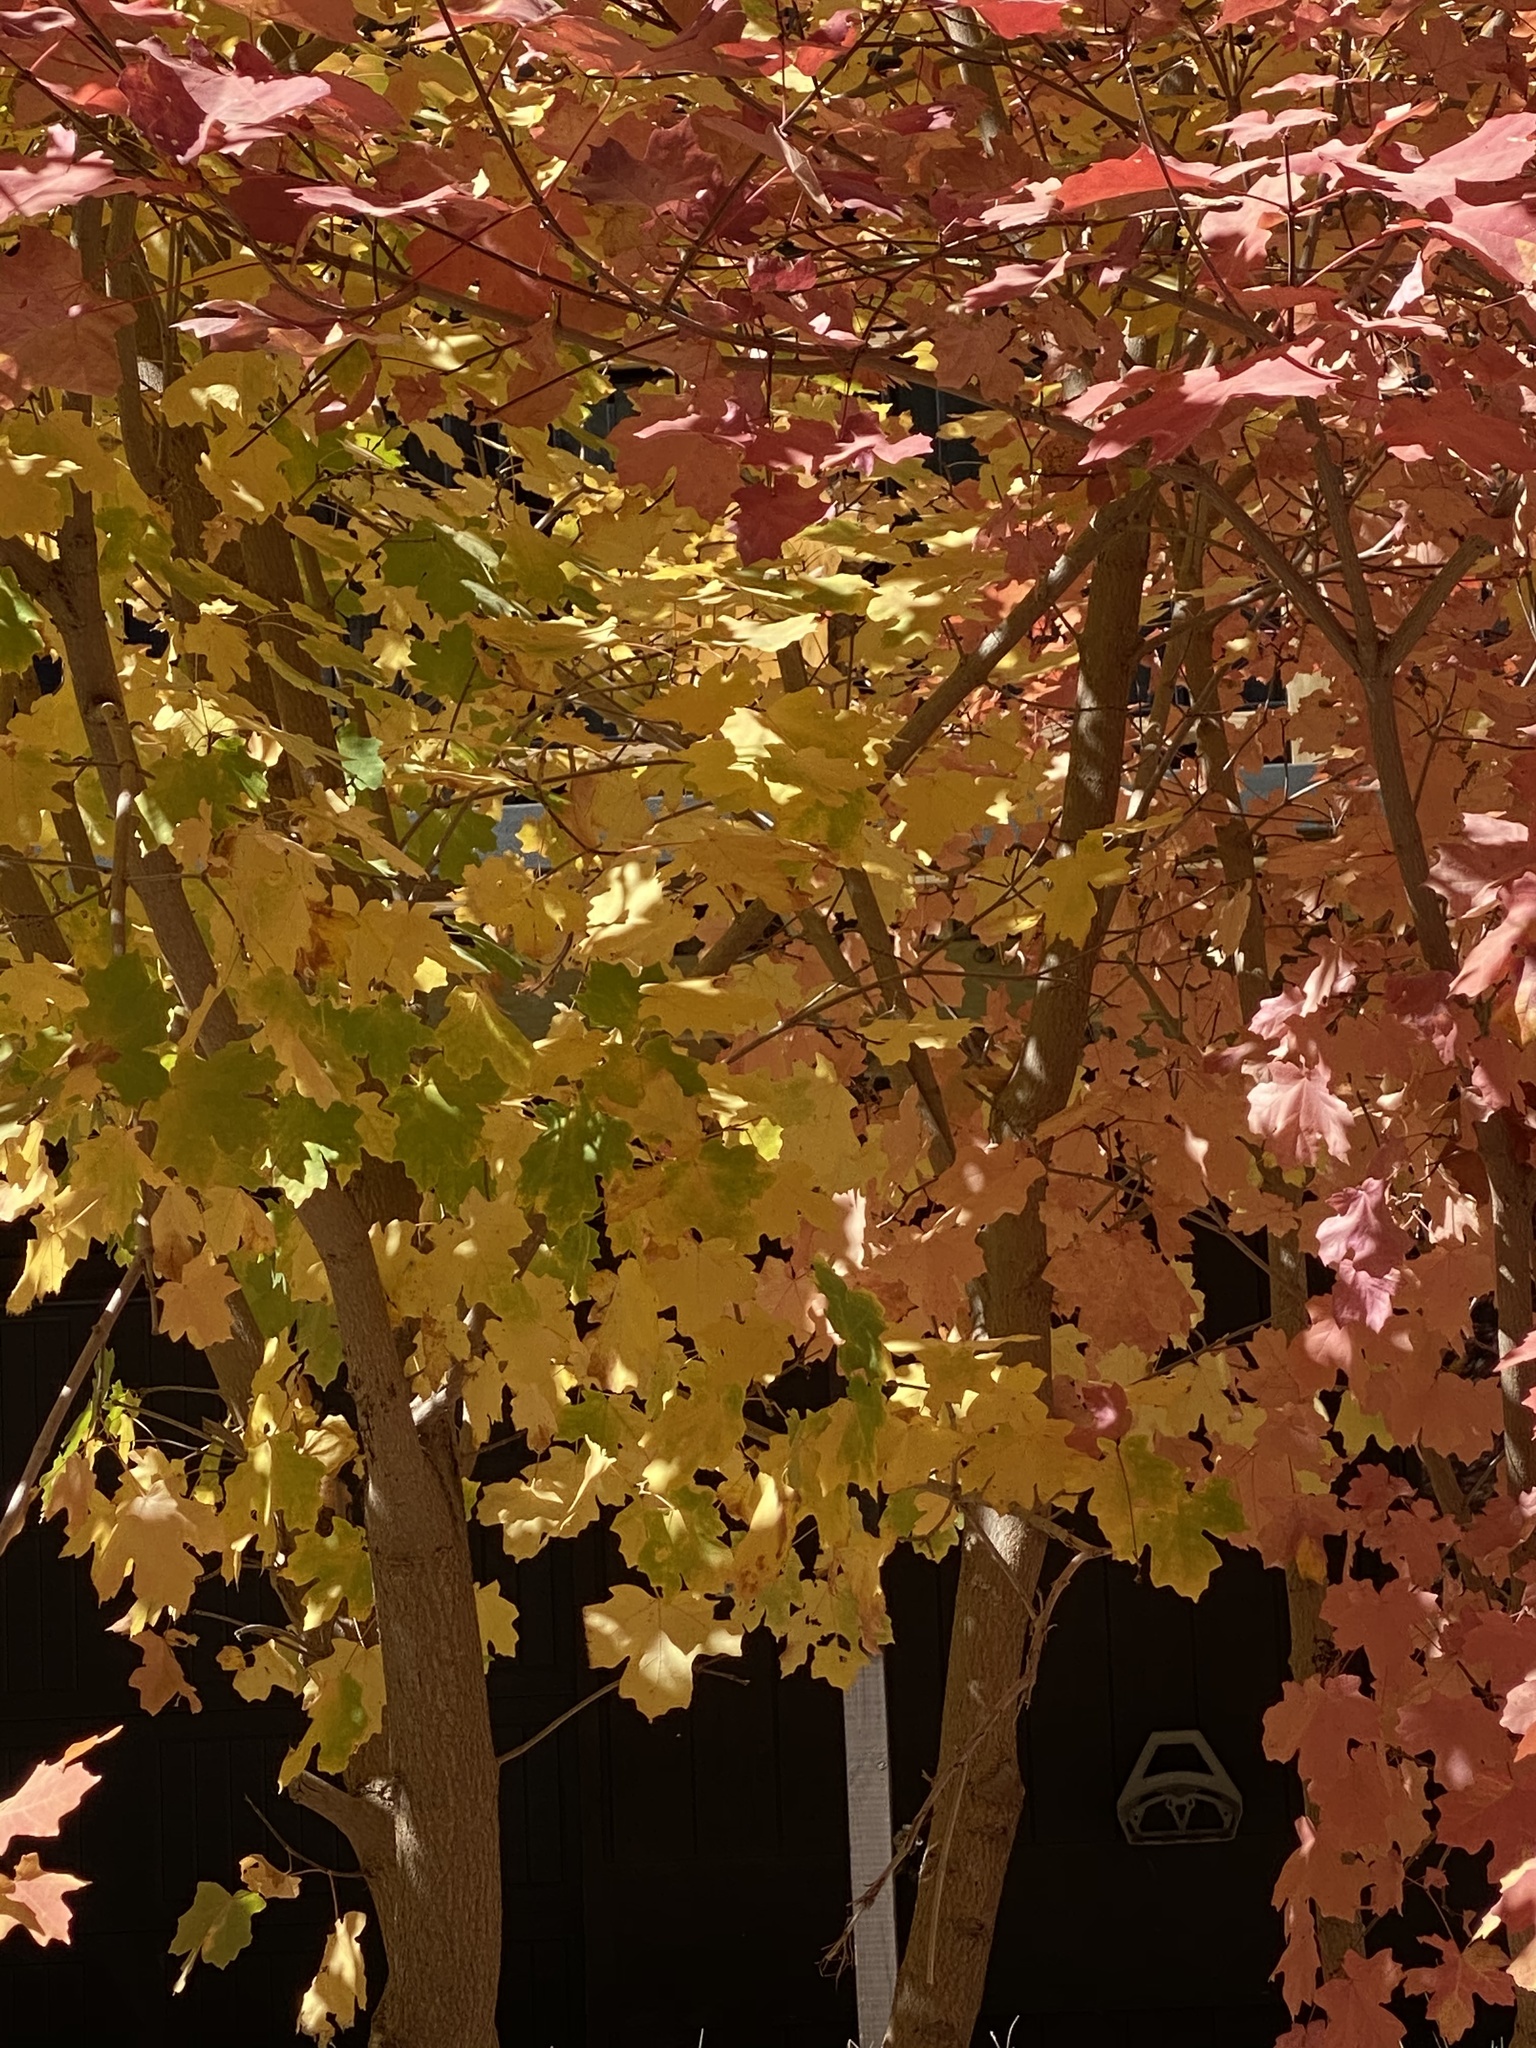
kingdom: Plantae
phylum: Tracheophyta
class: Magnoliopsida
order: Sapindales
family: Sapindaceae
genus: Acer
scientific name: Acer grandidentatum
